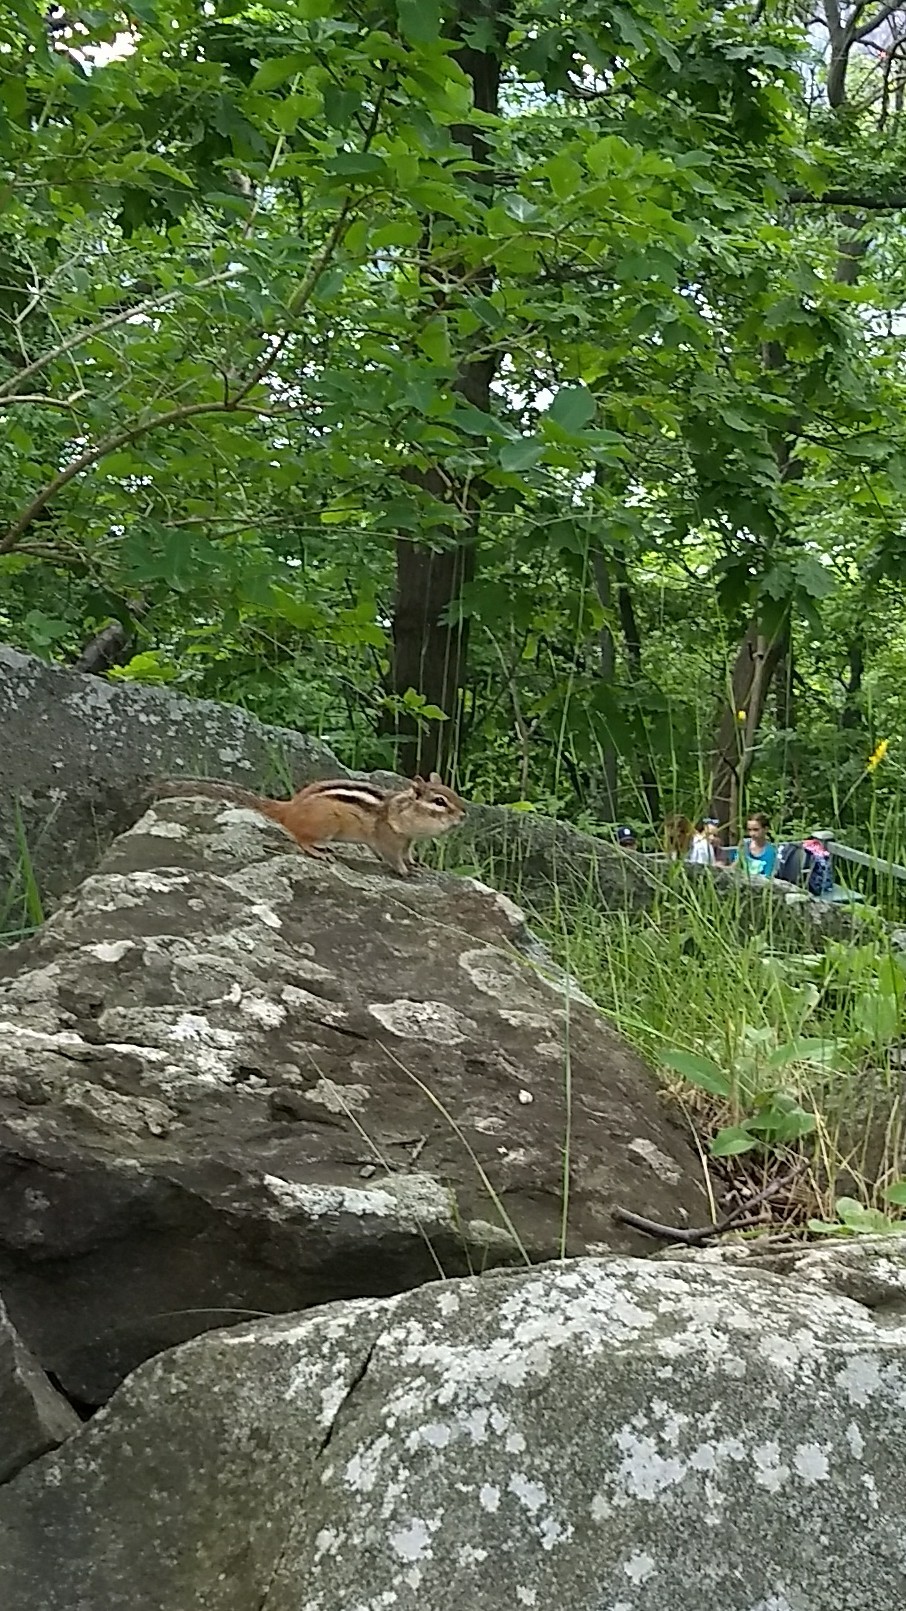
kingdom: Animalia
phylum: Chordata
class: Mammalia
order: Rodentia
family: Sciuridae
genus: Tamias
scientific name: Tamias striatus
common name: Eastern chipmunk
